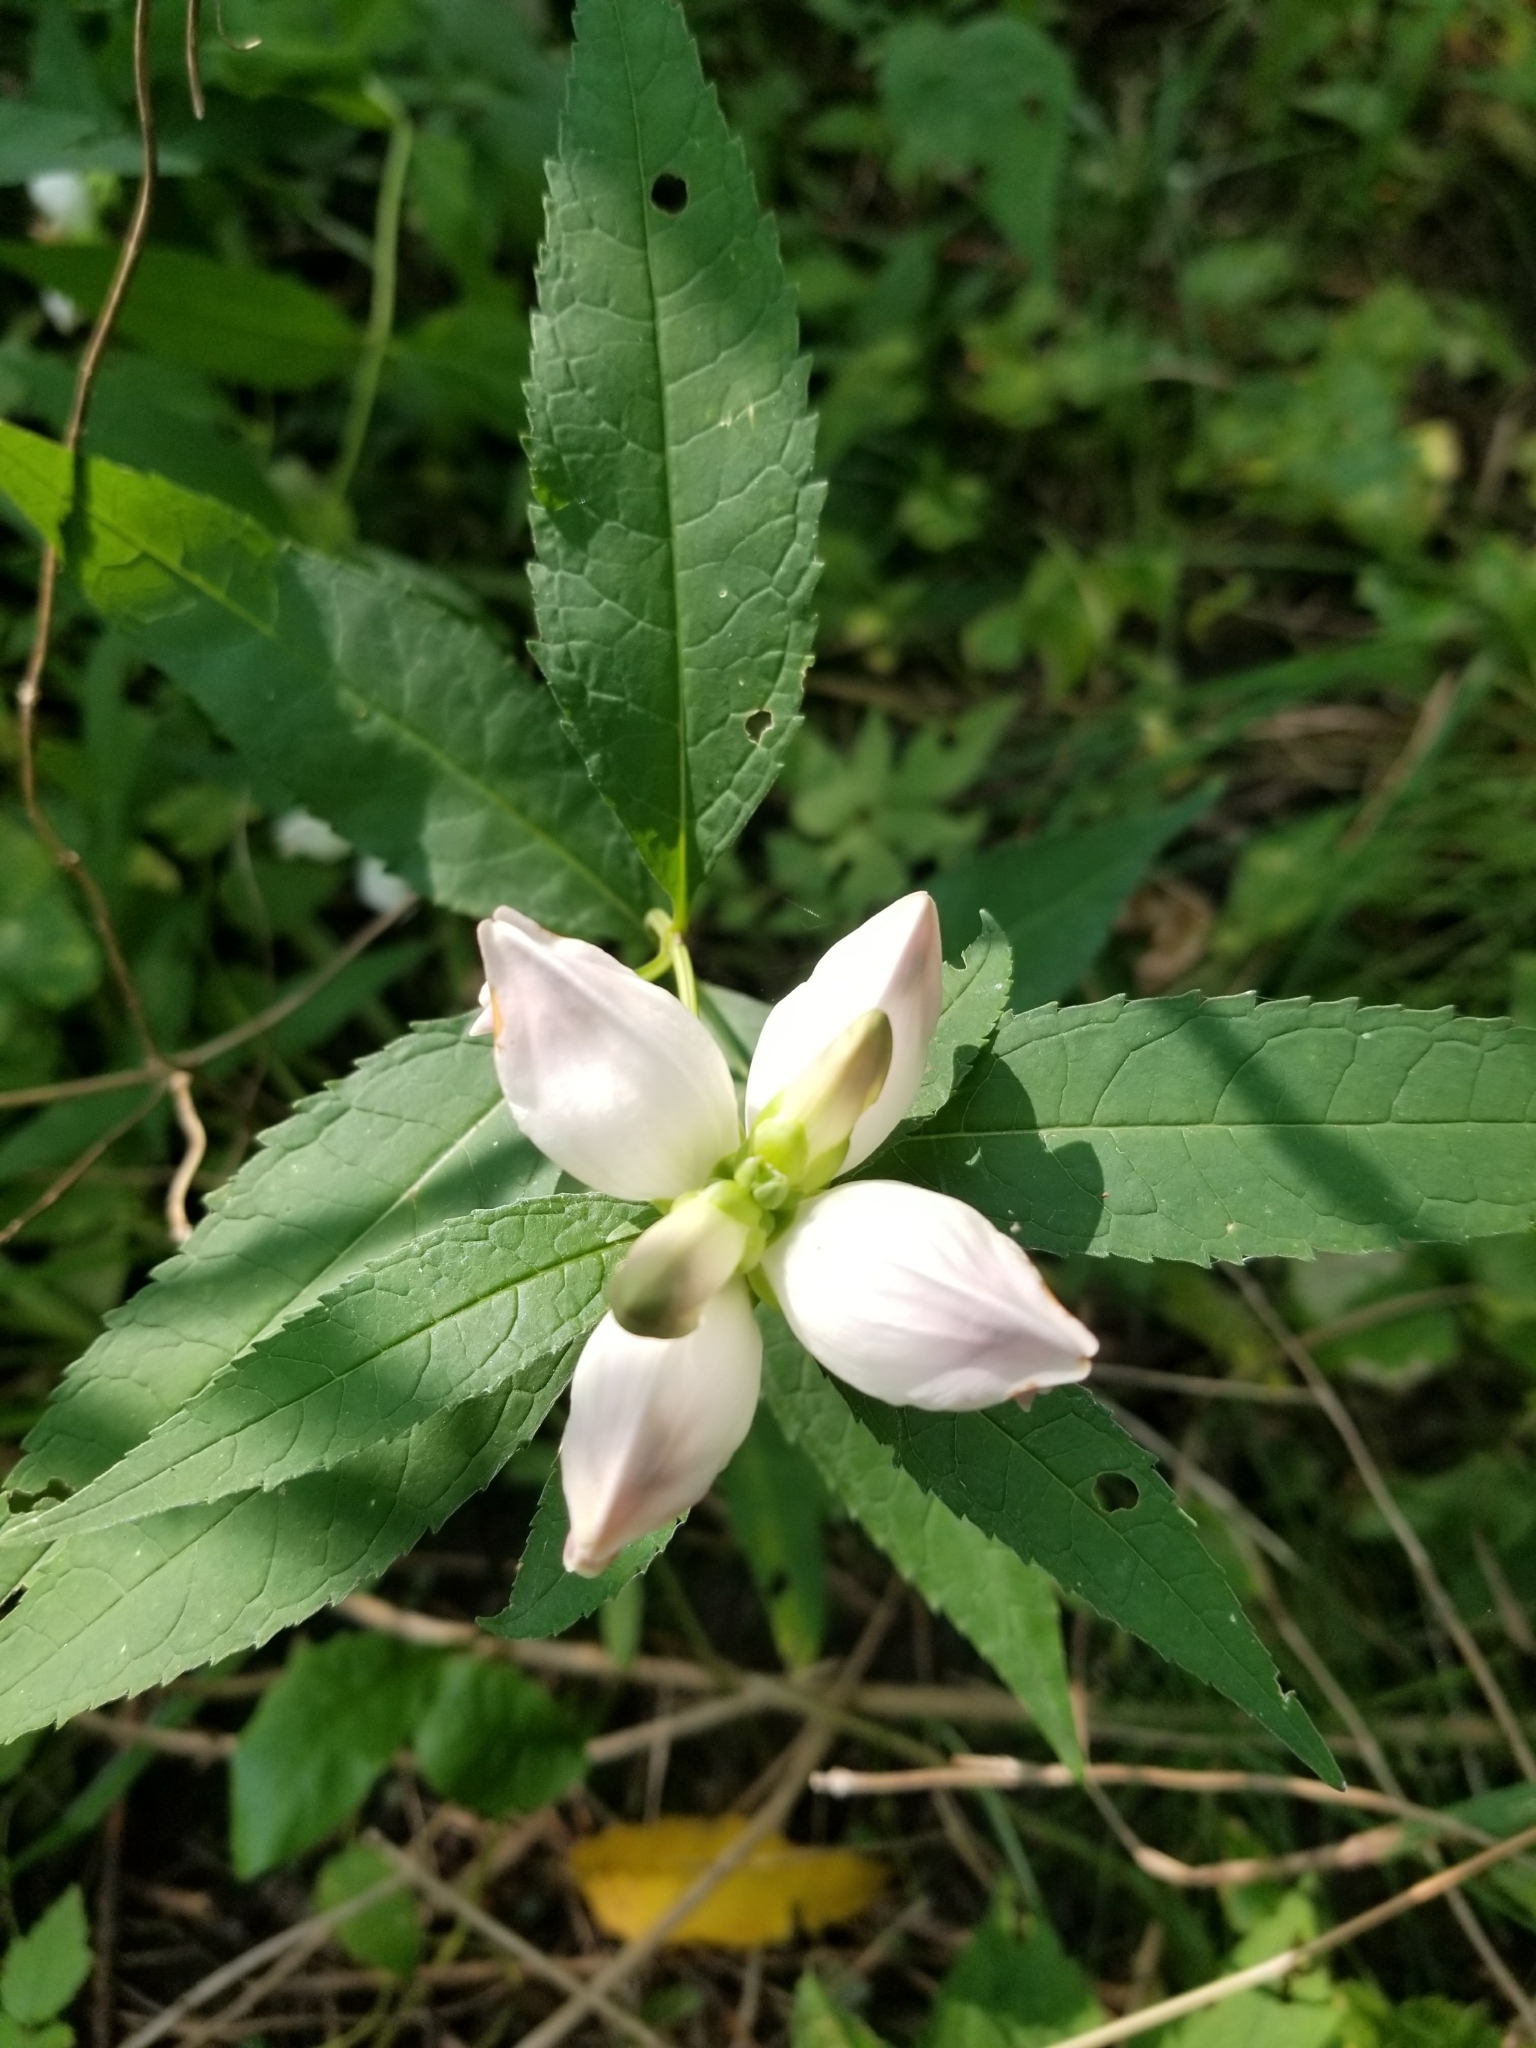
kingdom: Plantae
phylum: Tracheophyta
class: Magnoliopsida
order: Lamiales
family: Plantaginaceae
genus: Chelone
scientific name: Chelone glabra
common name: Snakehead
